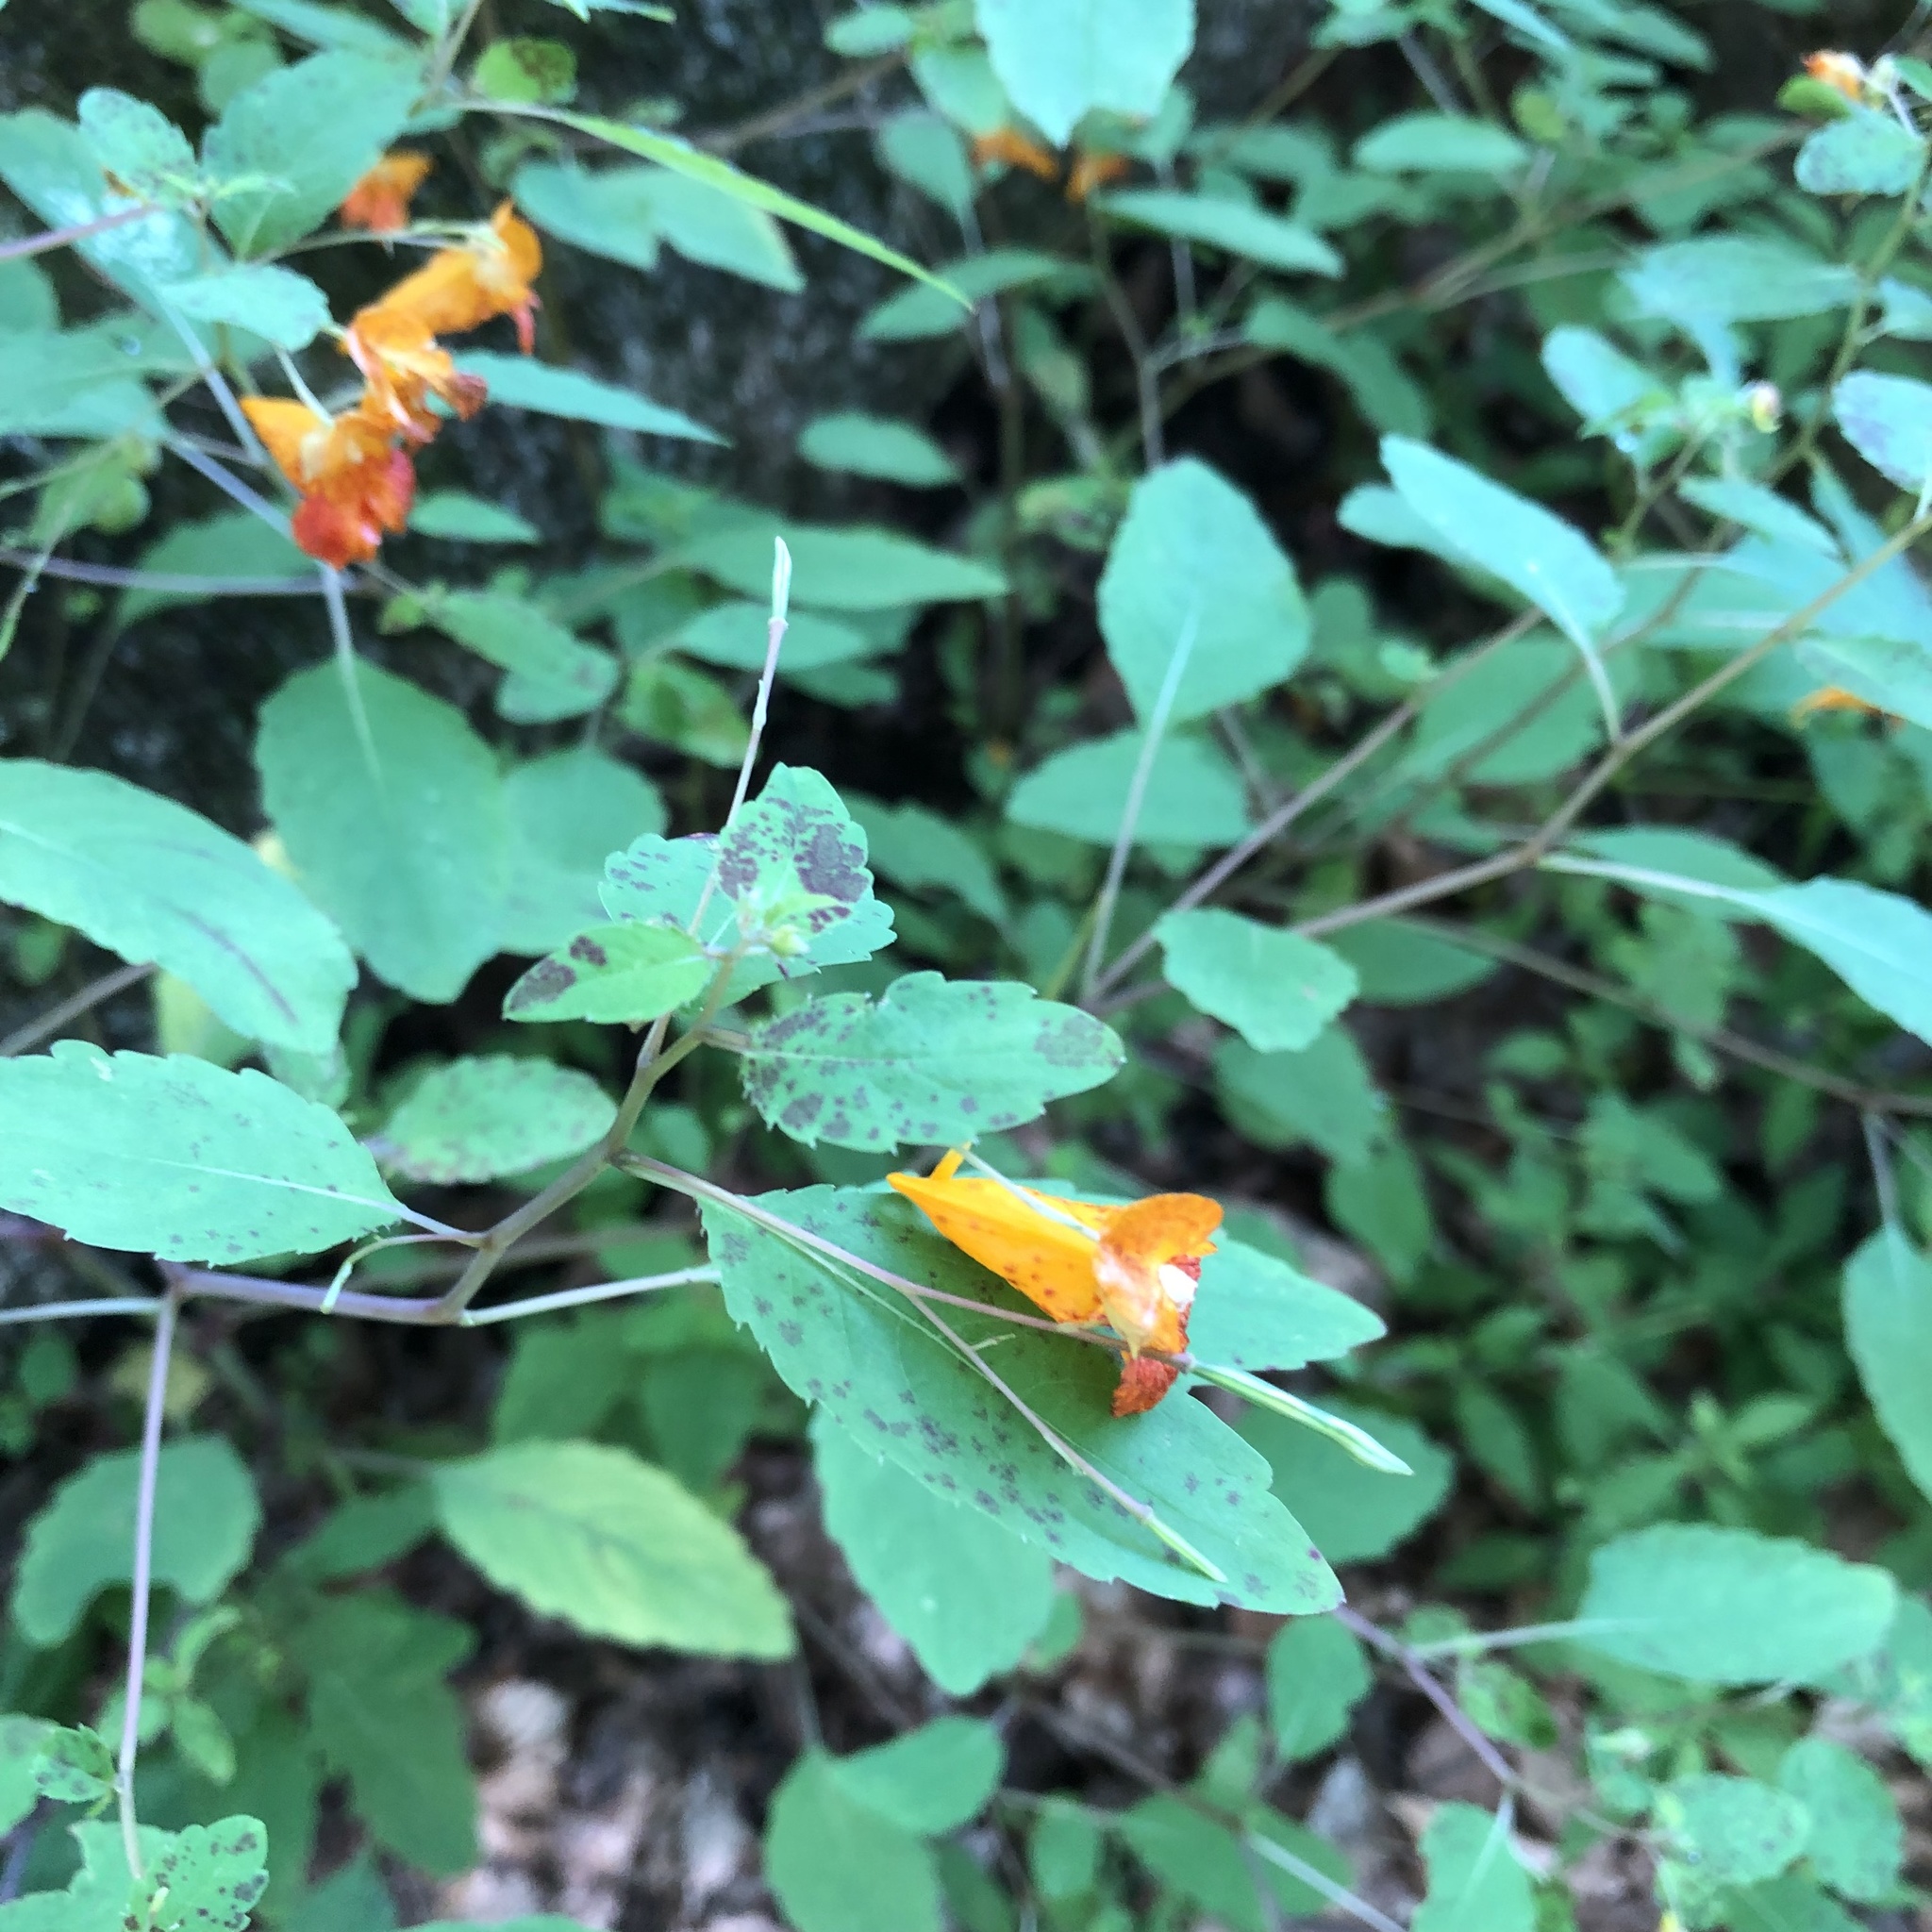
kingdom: Plantae
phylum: Tracheophyta
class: Magnoliopsida
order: Ericales
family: Balsaminaceae
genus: Impatiens
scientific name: Impatiens capensis
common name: Orange balsam
